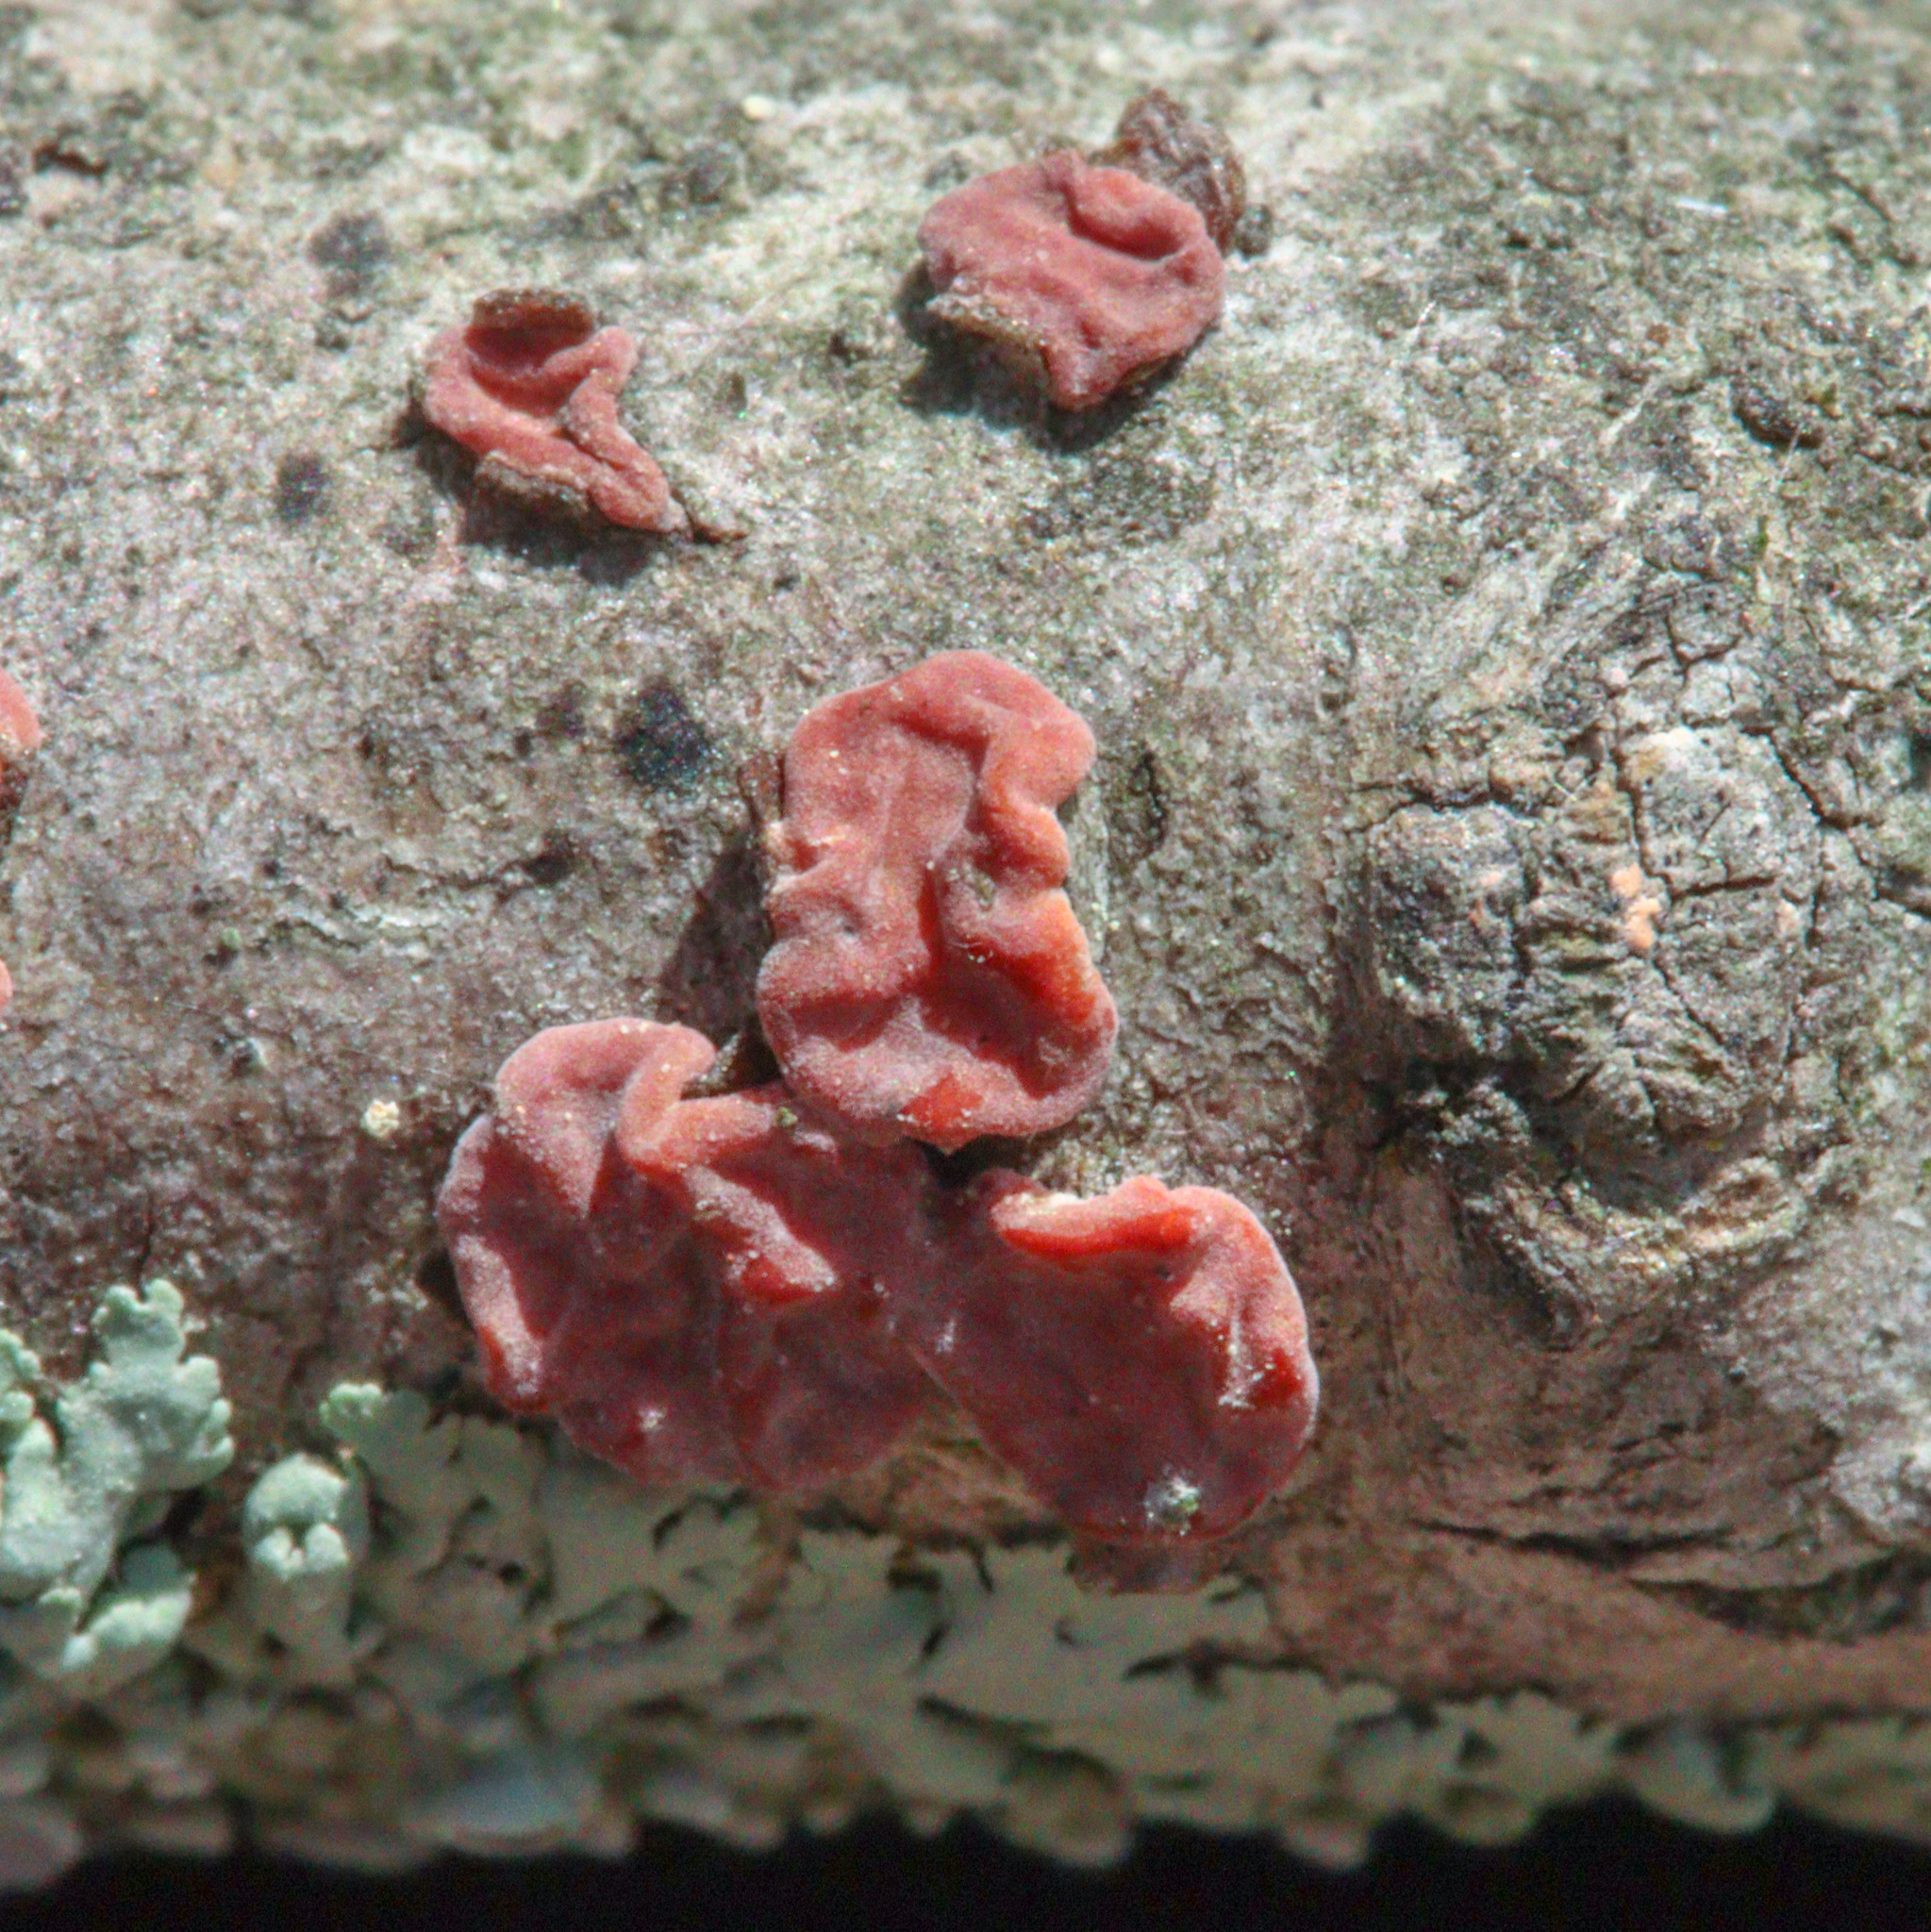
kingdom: Fungi
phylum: Basidiomycota
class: Agaricomycetes
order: Russulales
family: Peniophoraceae
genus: Peniophora
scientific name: Peniophora rufa
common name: Red tree brain fungus
